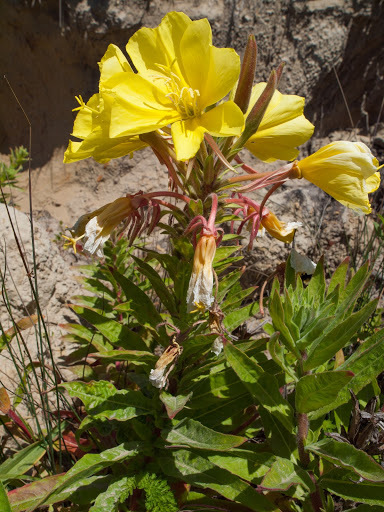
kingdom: Plantae
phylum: Tracheophyta
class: Magnoliopsida
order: Myrtales
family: Onagraceae
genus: Oenothera
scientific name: Oenothera elata
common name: Hooker's evening-primrose
